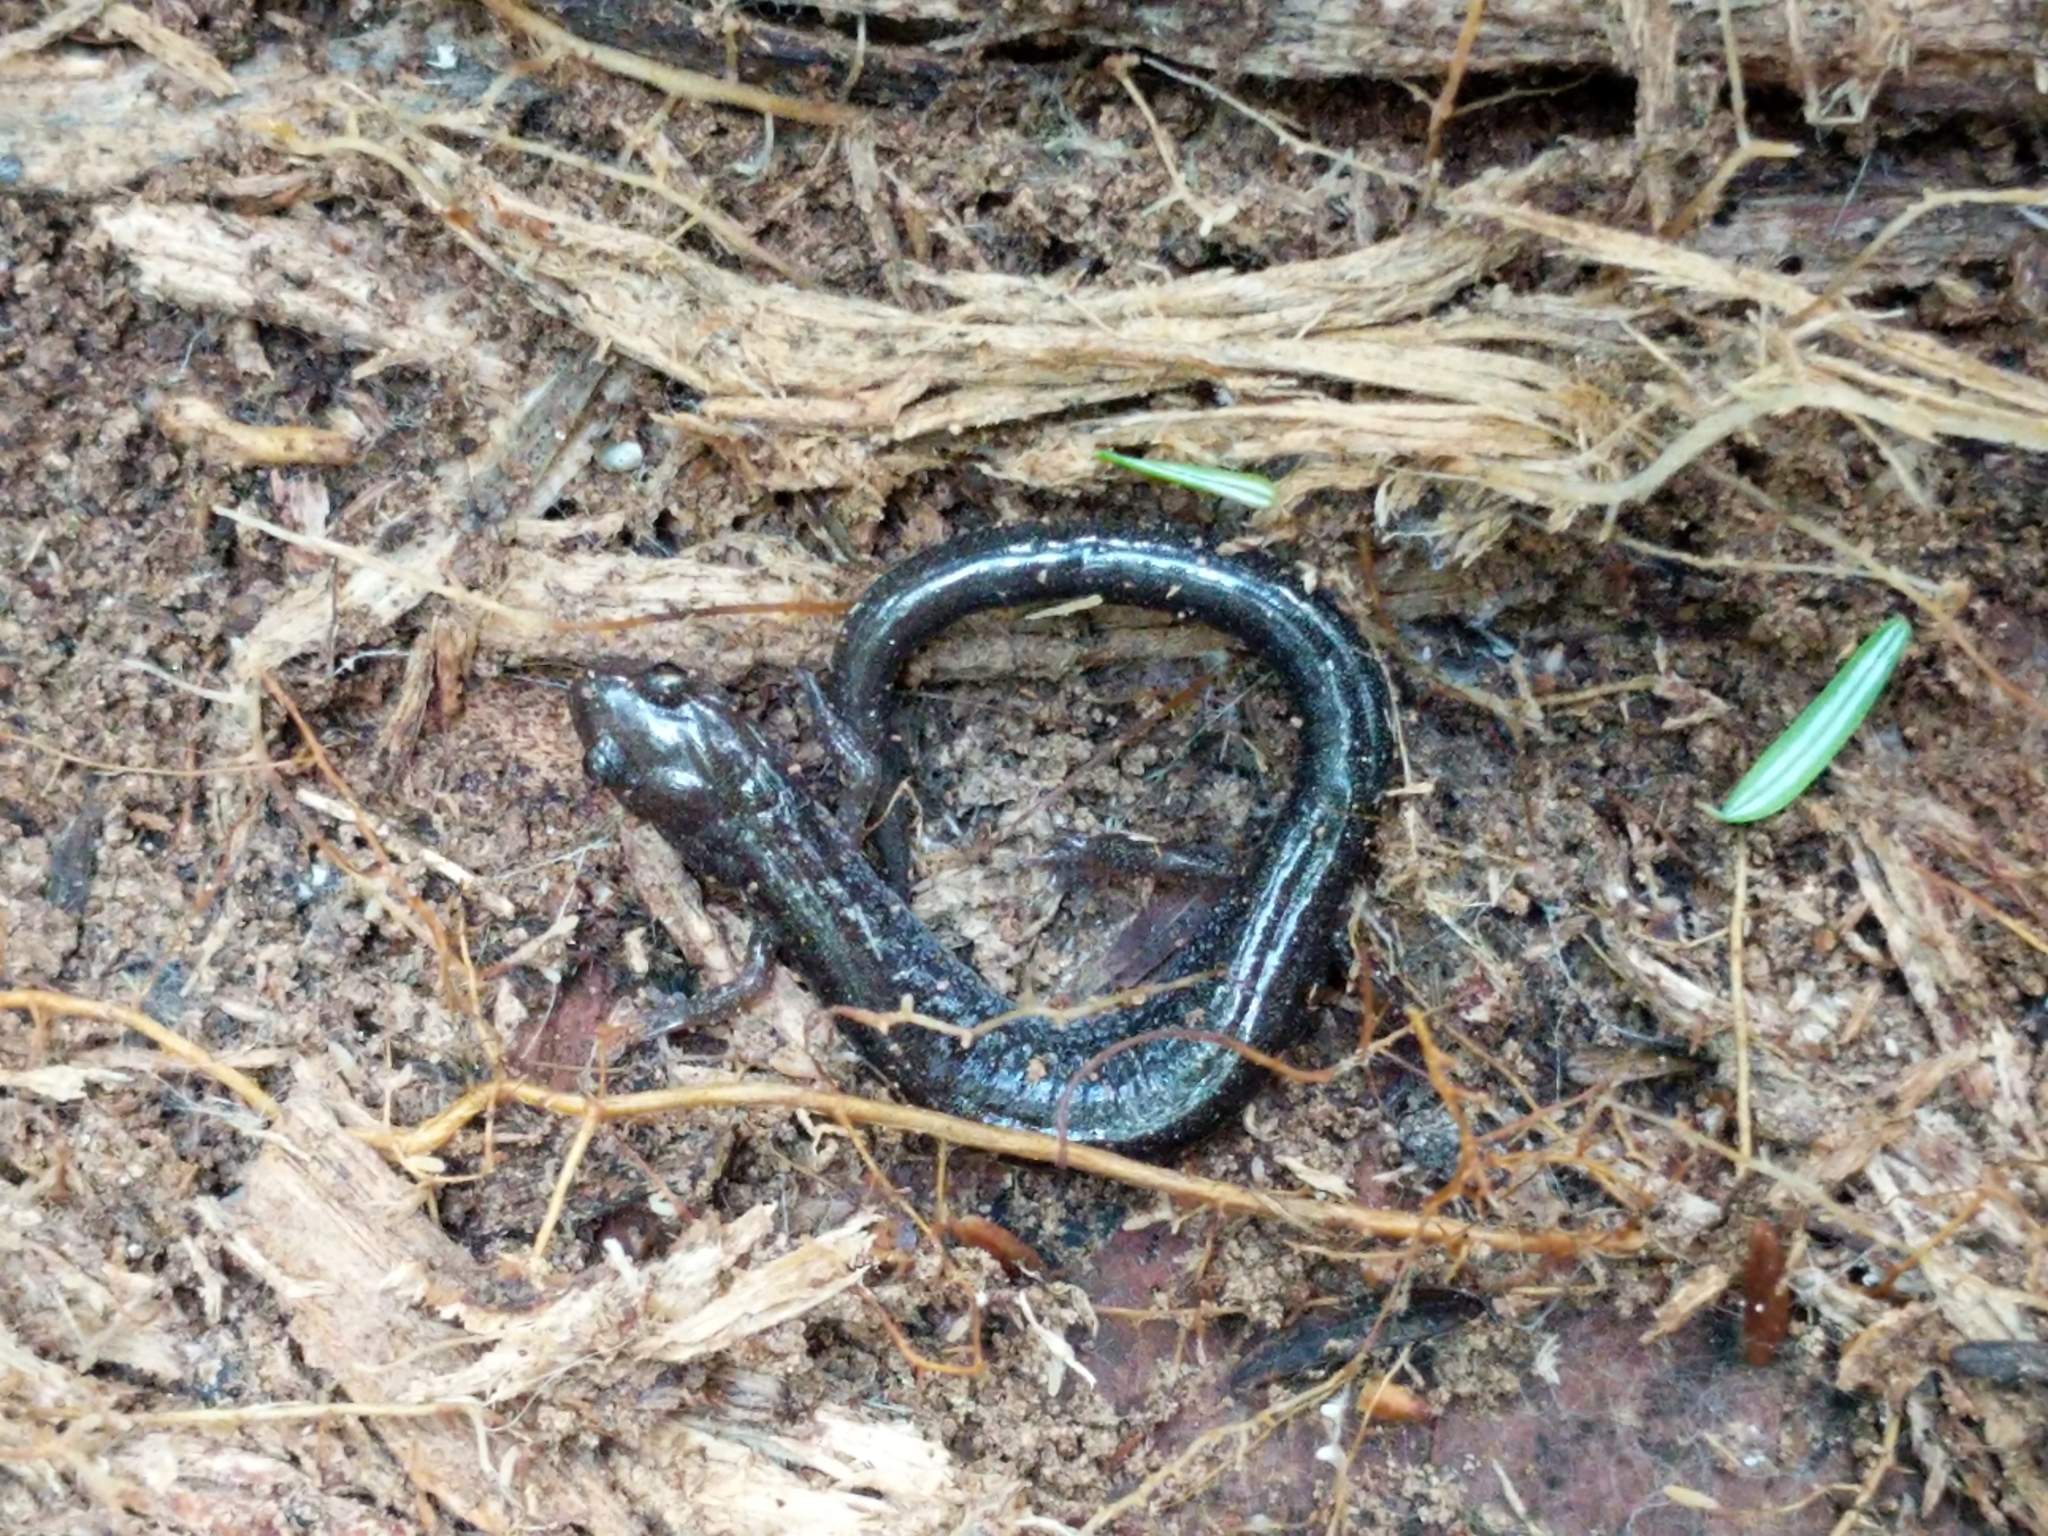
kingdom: Animalia
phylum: Chordata
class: Amphibia
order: Caudata
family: Plethodontidae
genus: Plethodon
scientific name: Plethodon cinereus
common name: Redback salamander
